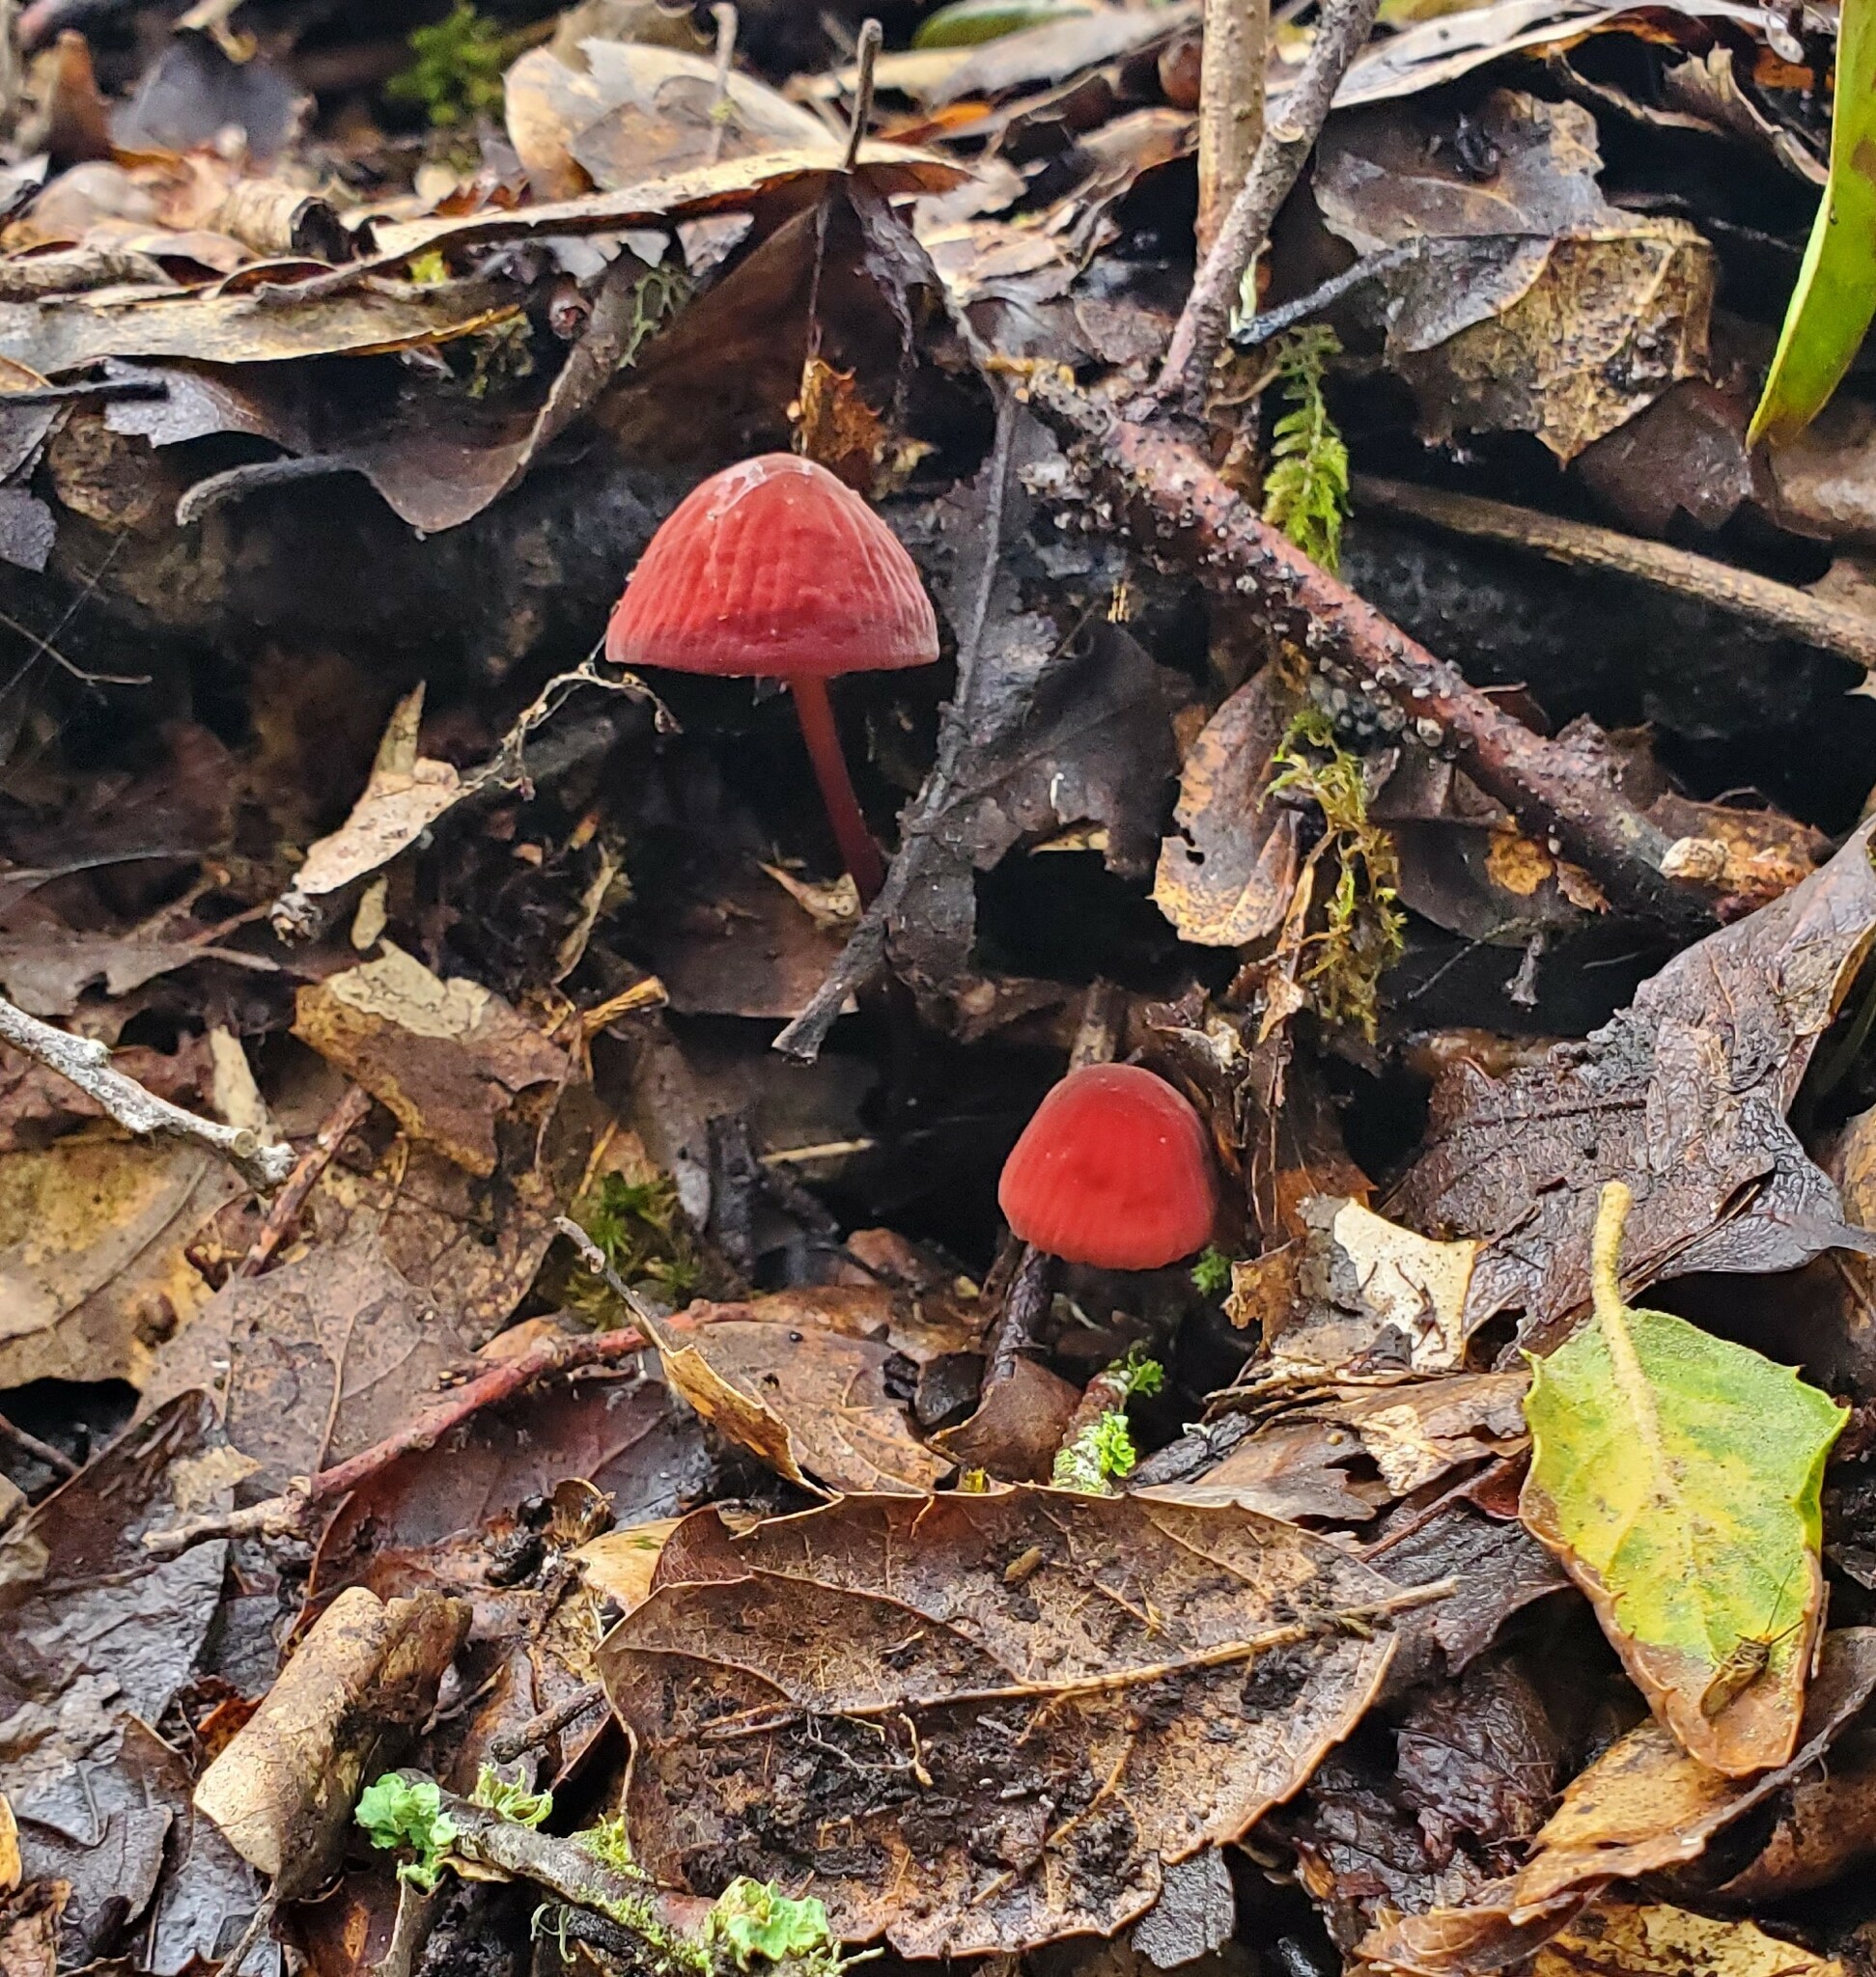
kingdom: Fungi
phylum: Basidiomycota
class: Agaricomycetes
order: Agaricales
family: Marasmiaceae
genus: Marasmius
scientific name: Marasmius plicatulus
